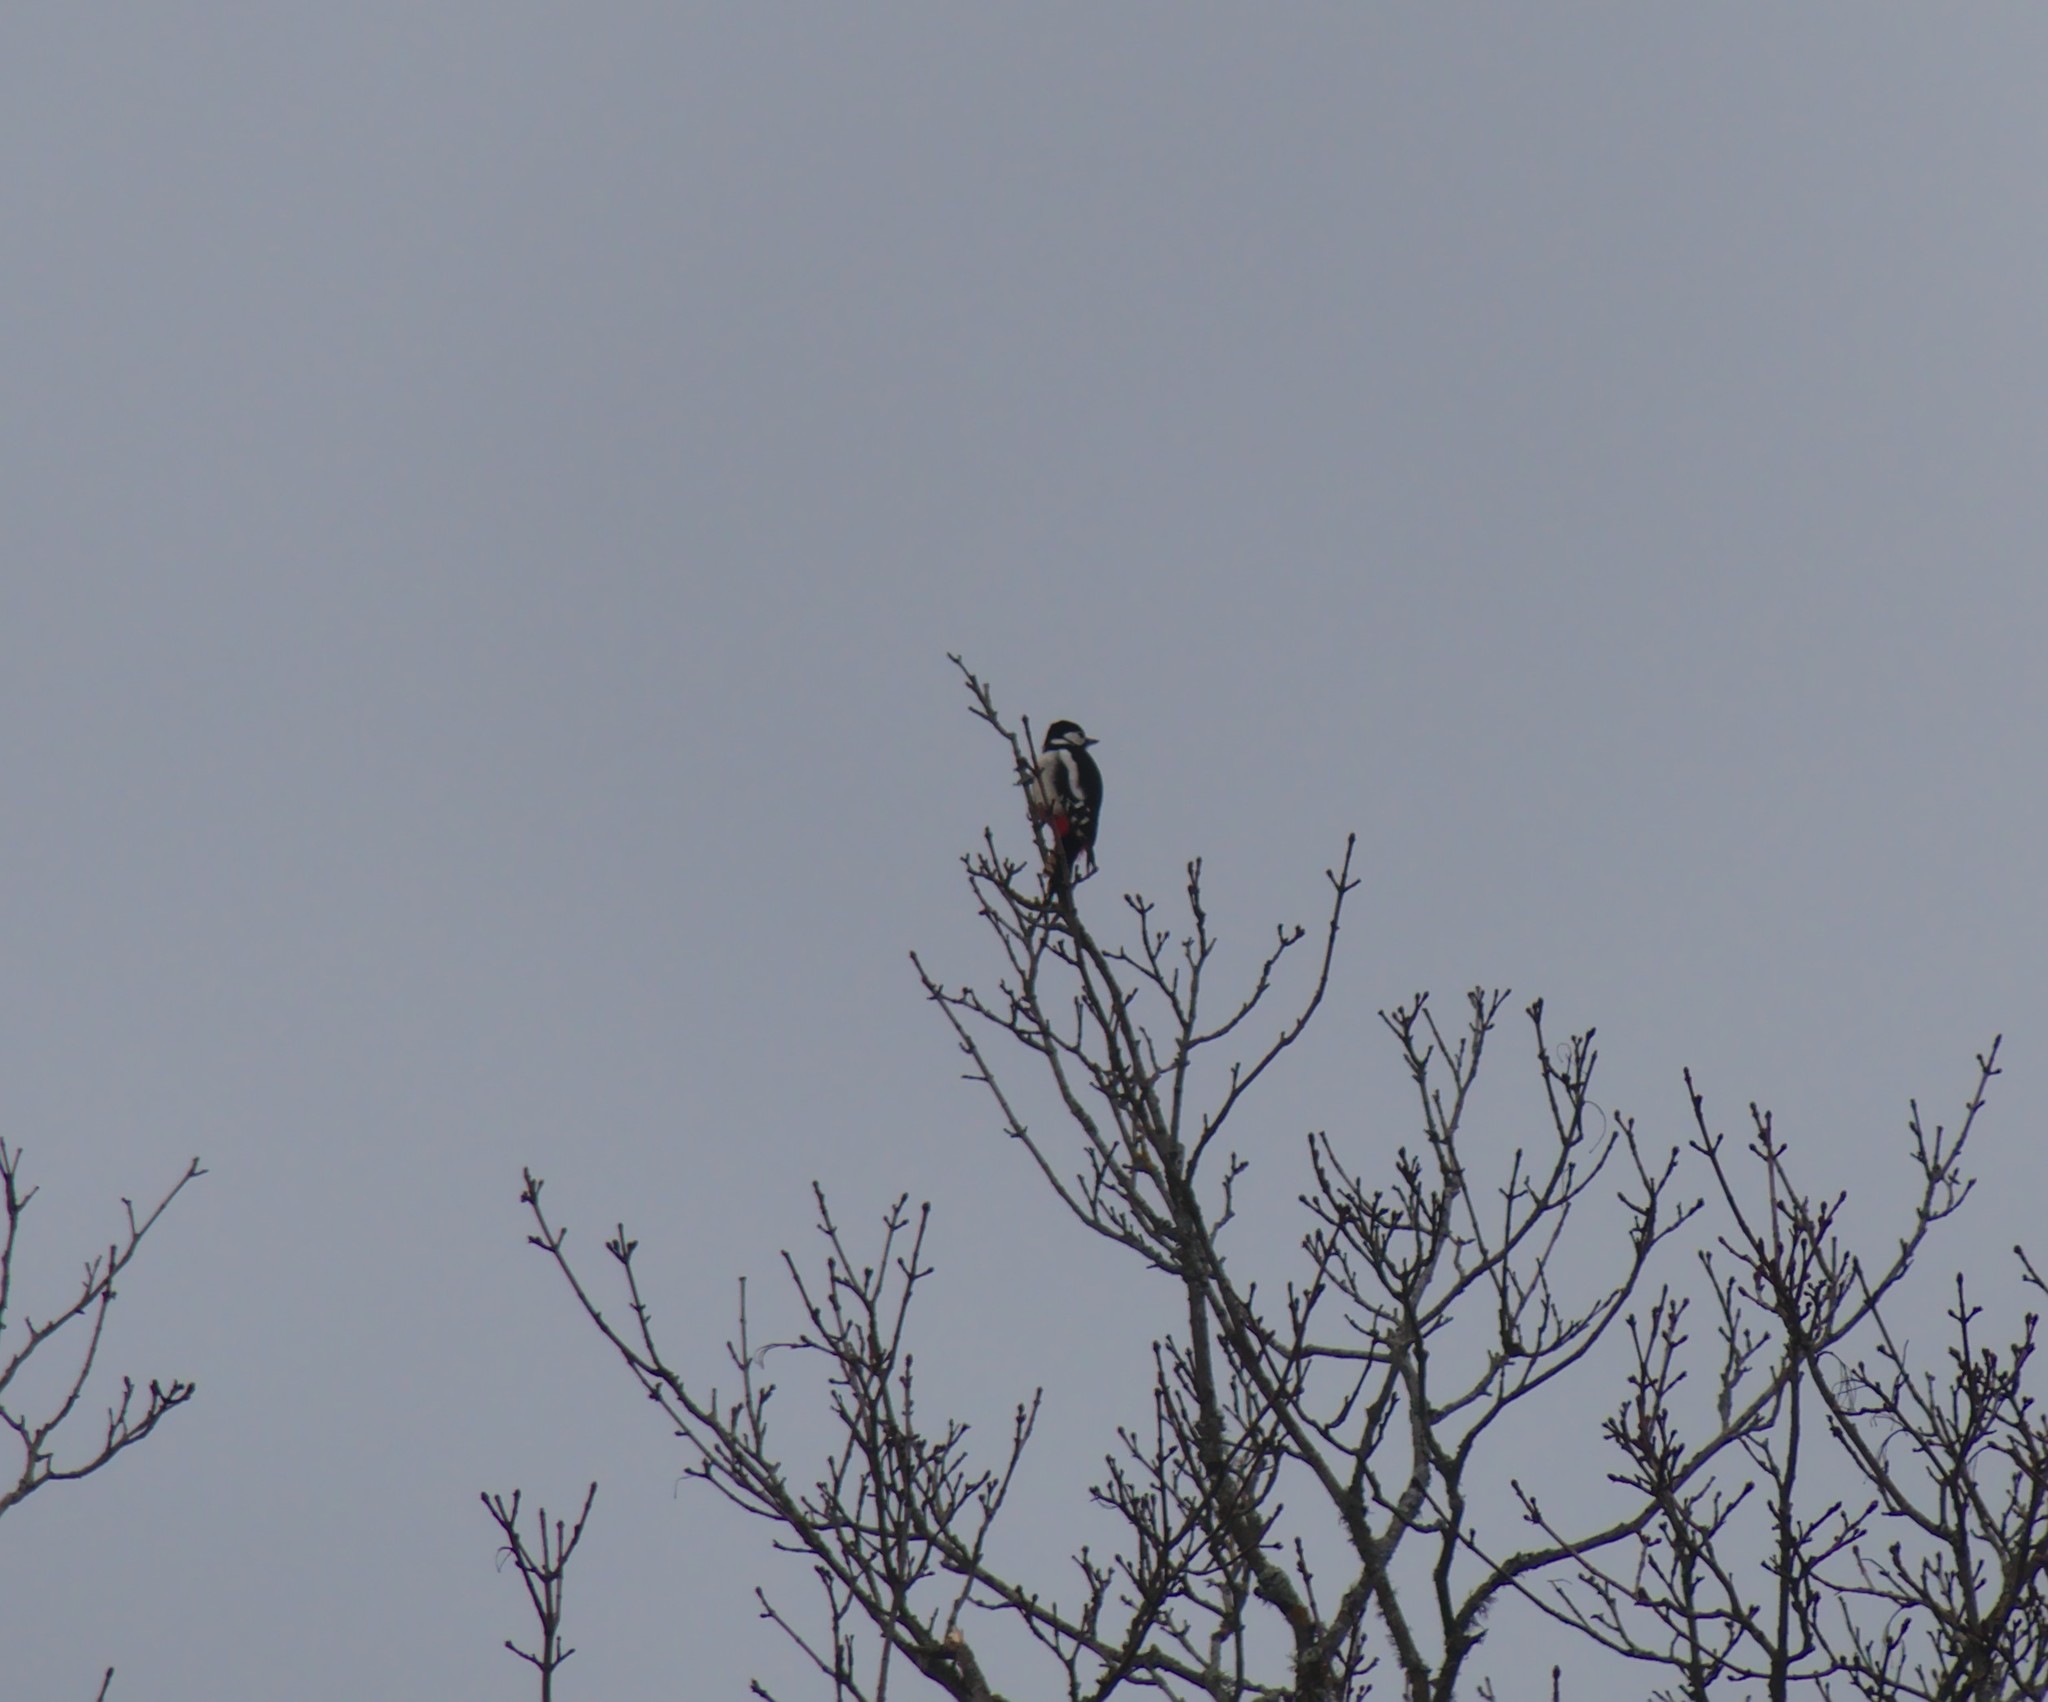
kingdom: Animalia
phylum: Chordata
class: Aves
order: Piciformes
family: Picidae
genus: Dendrocopos
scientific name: Dendrocopos major
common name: Great spotted woodpecker
